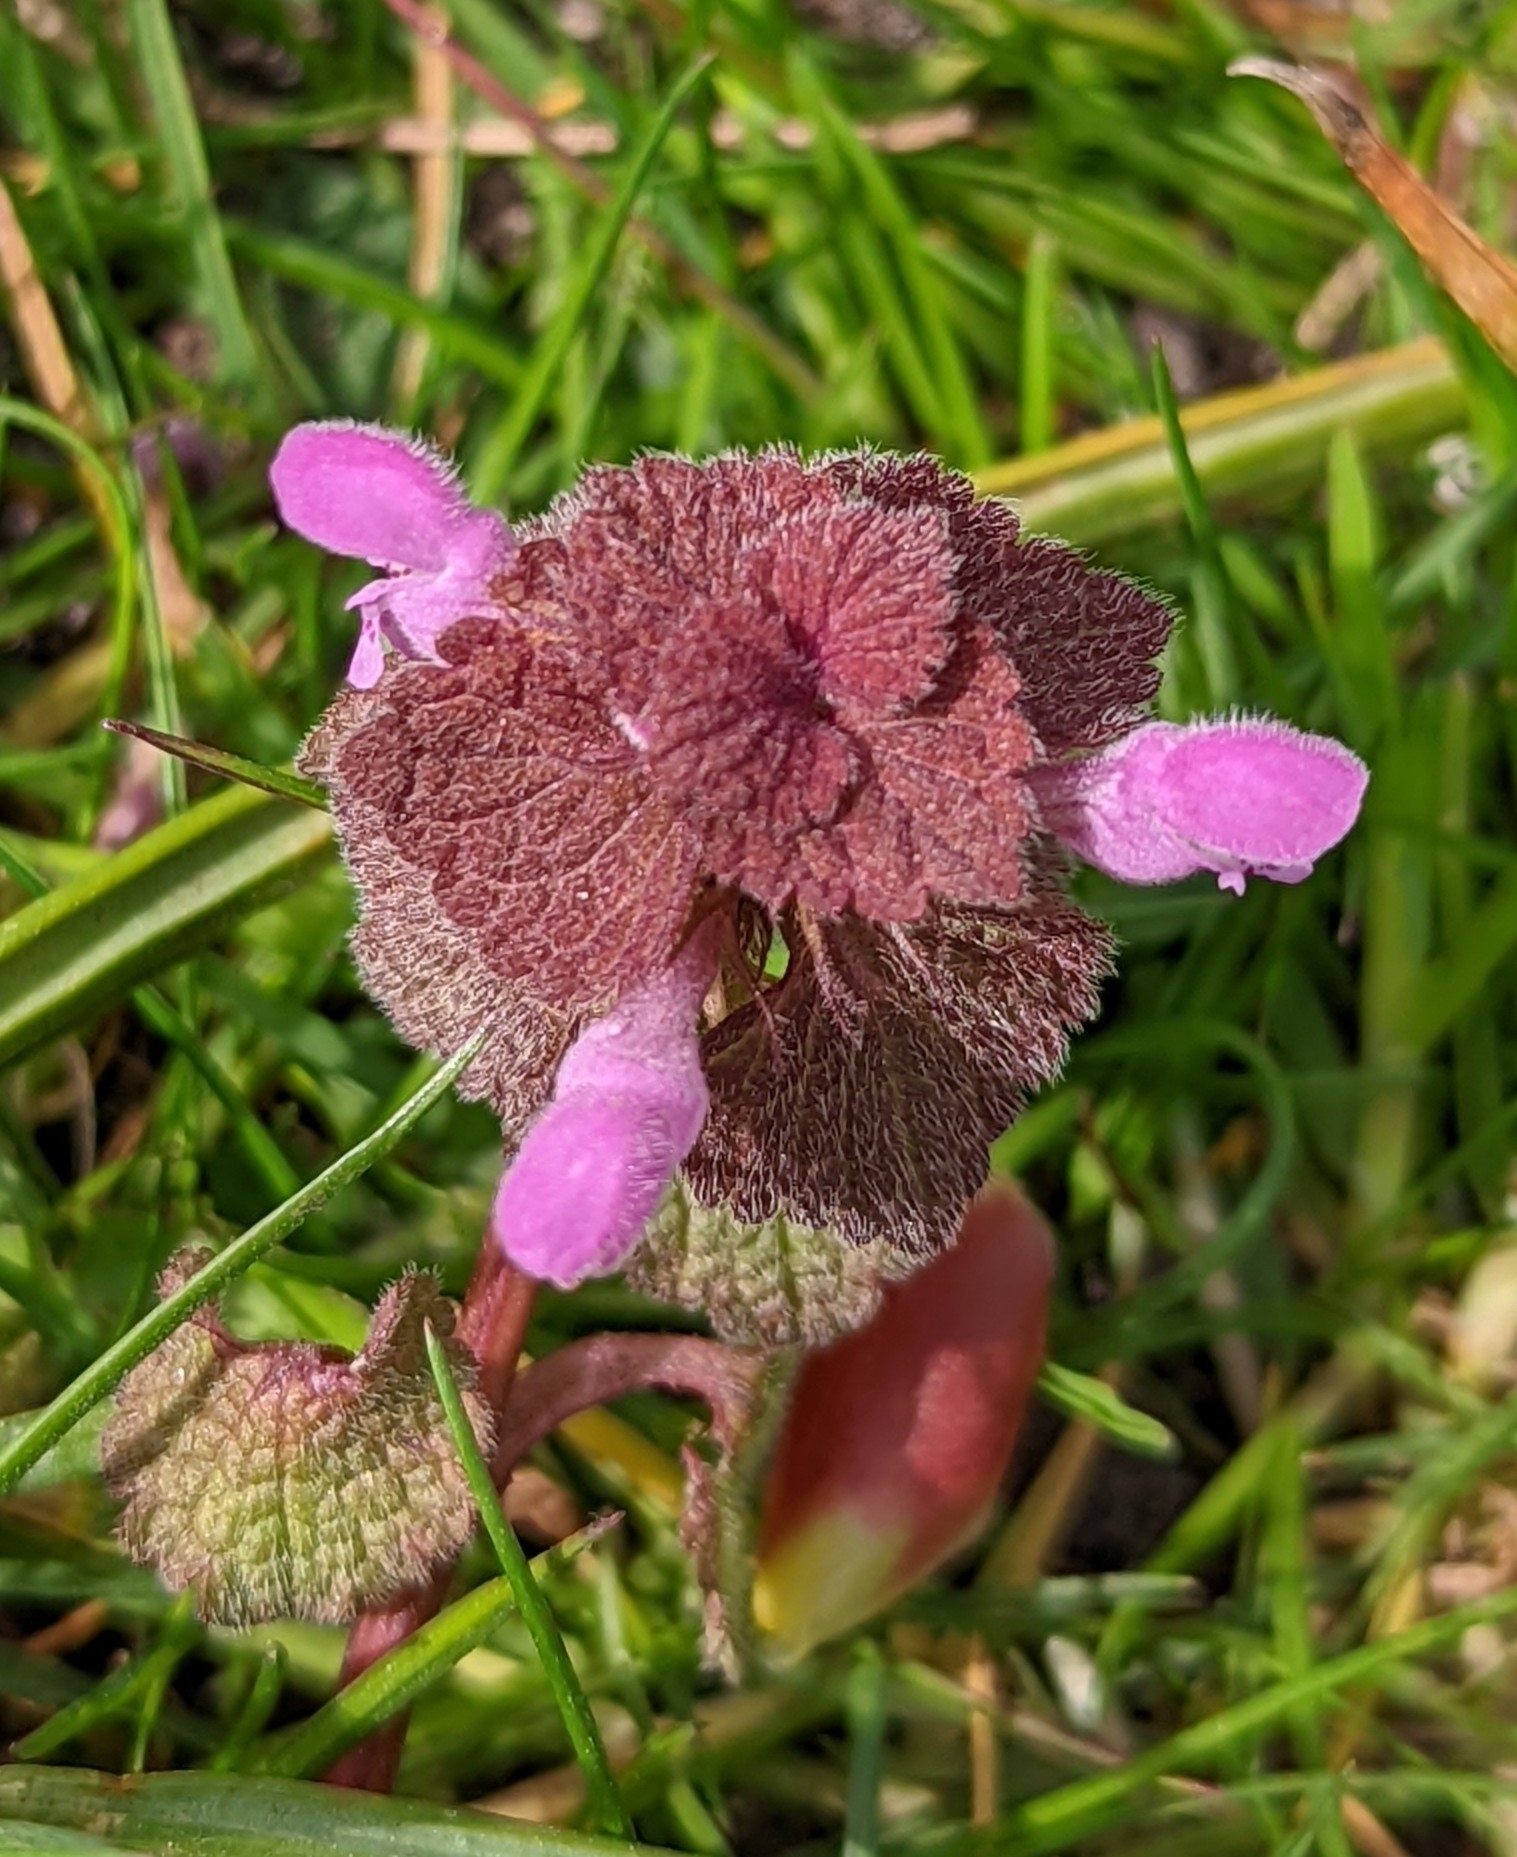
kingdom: Plantae
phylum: Tracheophyta
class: Magnoliopsida
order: Lamiales
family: Lamiaceae
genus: Lamium
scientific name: Lamium purpureum
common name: Red dead-nettle
